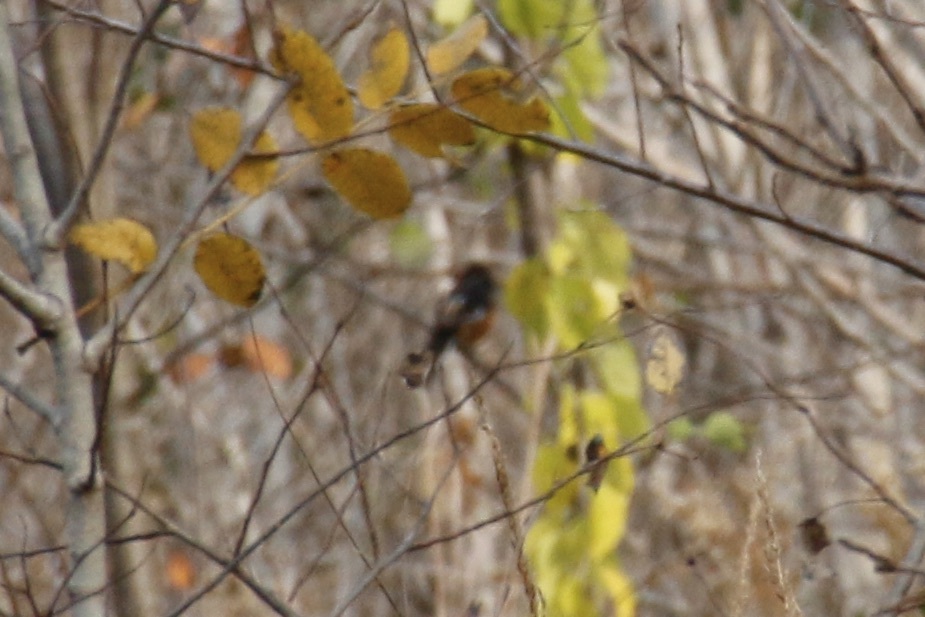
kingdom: Animalia
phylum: Chordata
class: Aves
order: Passeriformes
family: Passerellidae
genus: Pipilo
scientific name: Pipilo erythrophthalmus
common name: Eastern towhee
